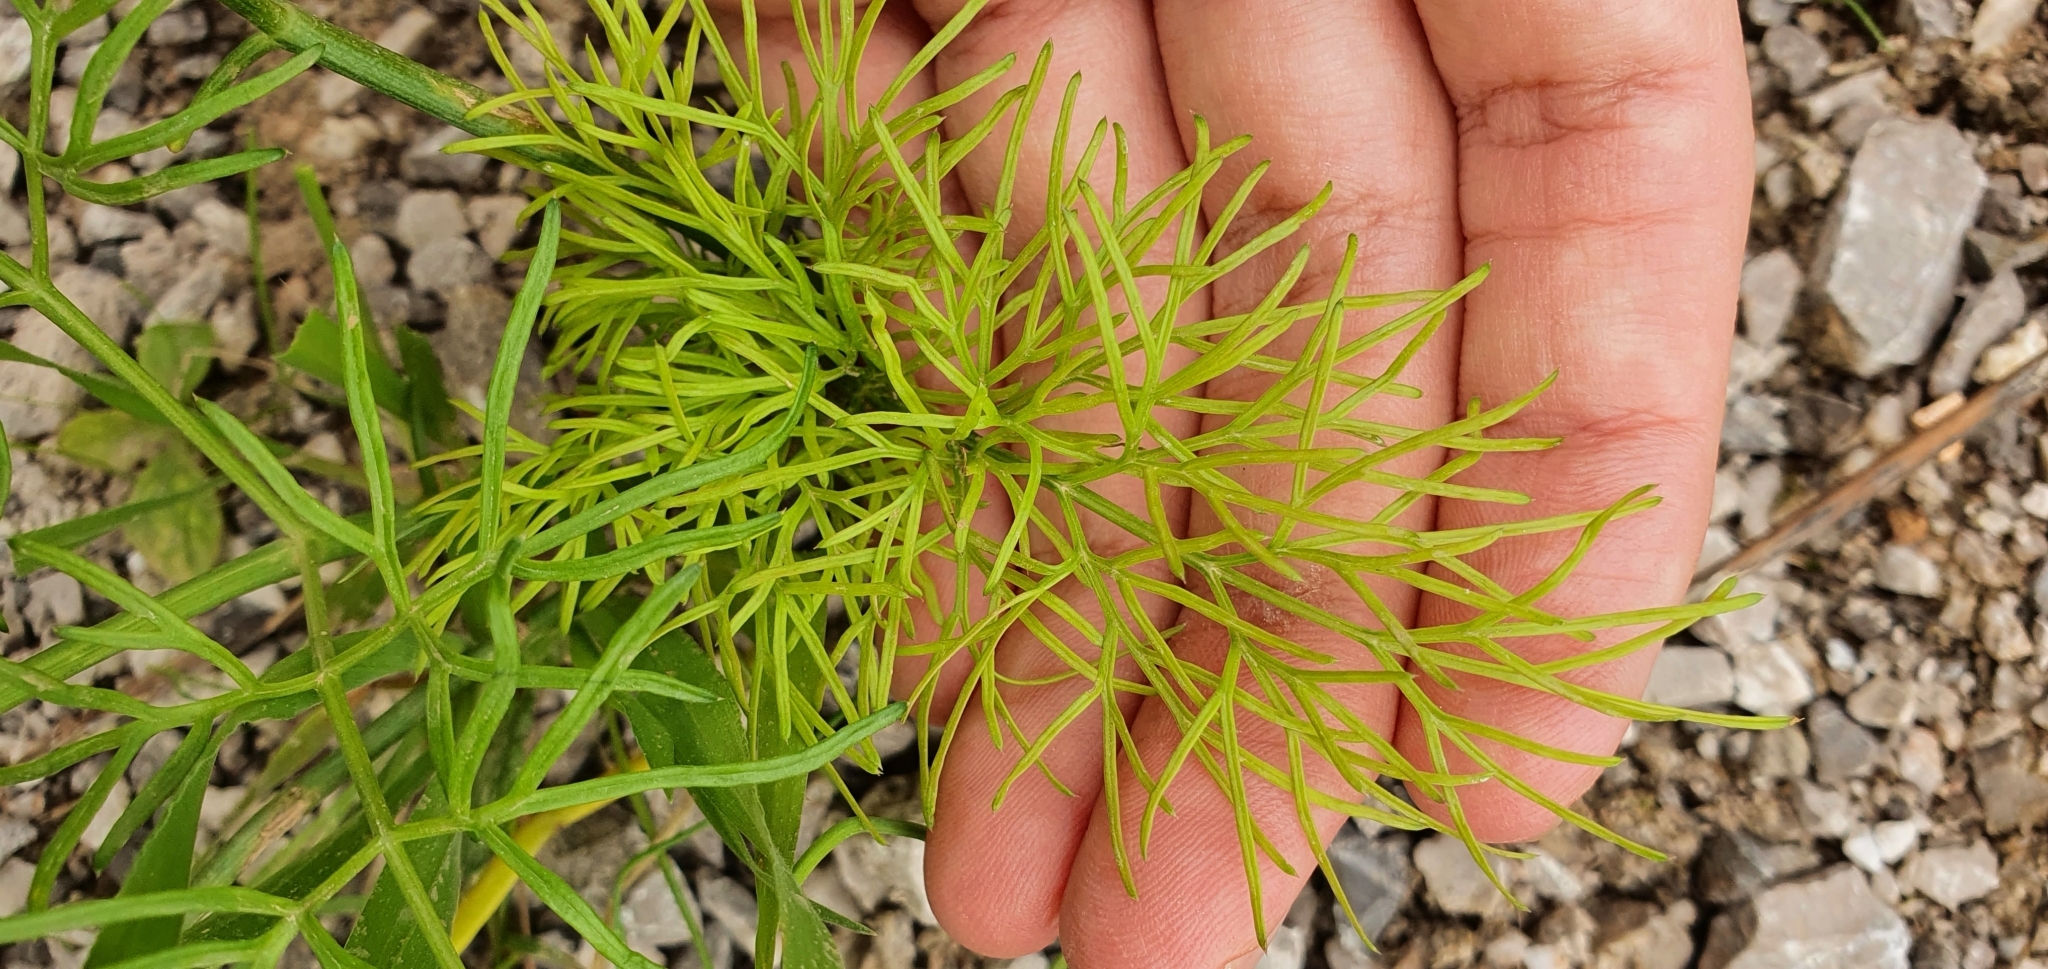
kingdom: Plantae
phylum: Tracheophyta
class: Magnoliopsida
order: Apiales
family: Apiaceae
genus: Ferula
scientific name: Ferula communis
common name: Giant fennel
